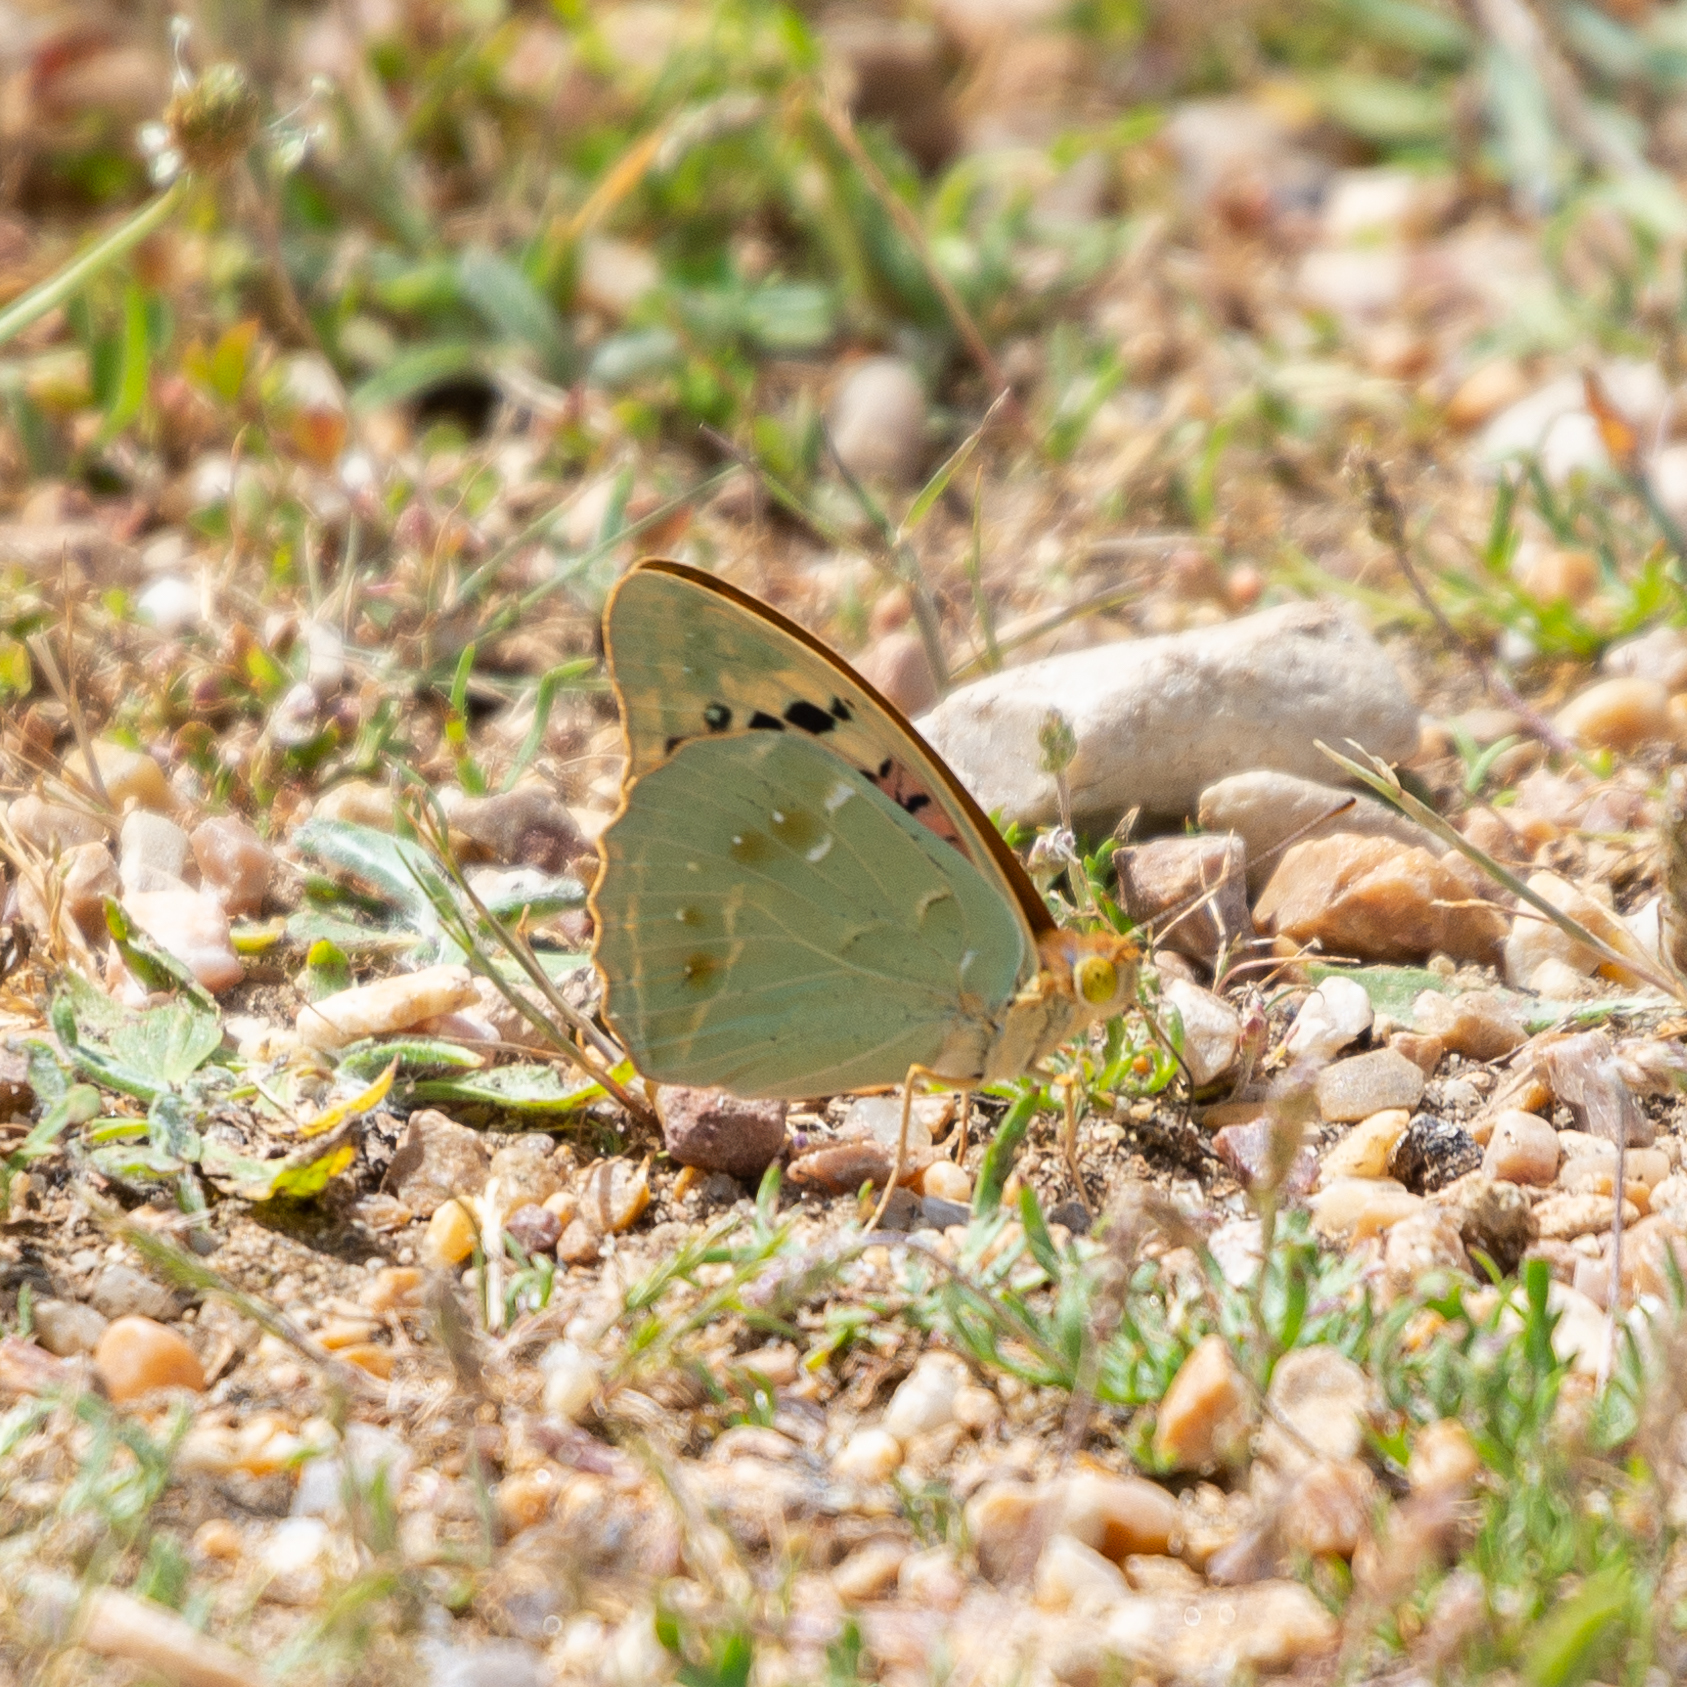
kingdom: Animalia
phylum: Arthropoda
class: Insecta
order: Lepidoptera
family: Nymphalidae
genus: Damora
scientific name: Damora pandora
